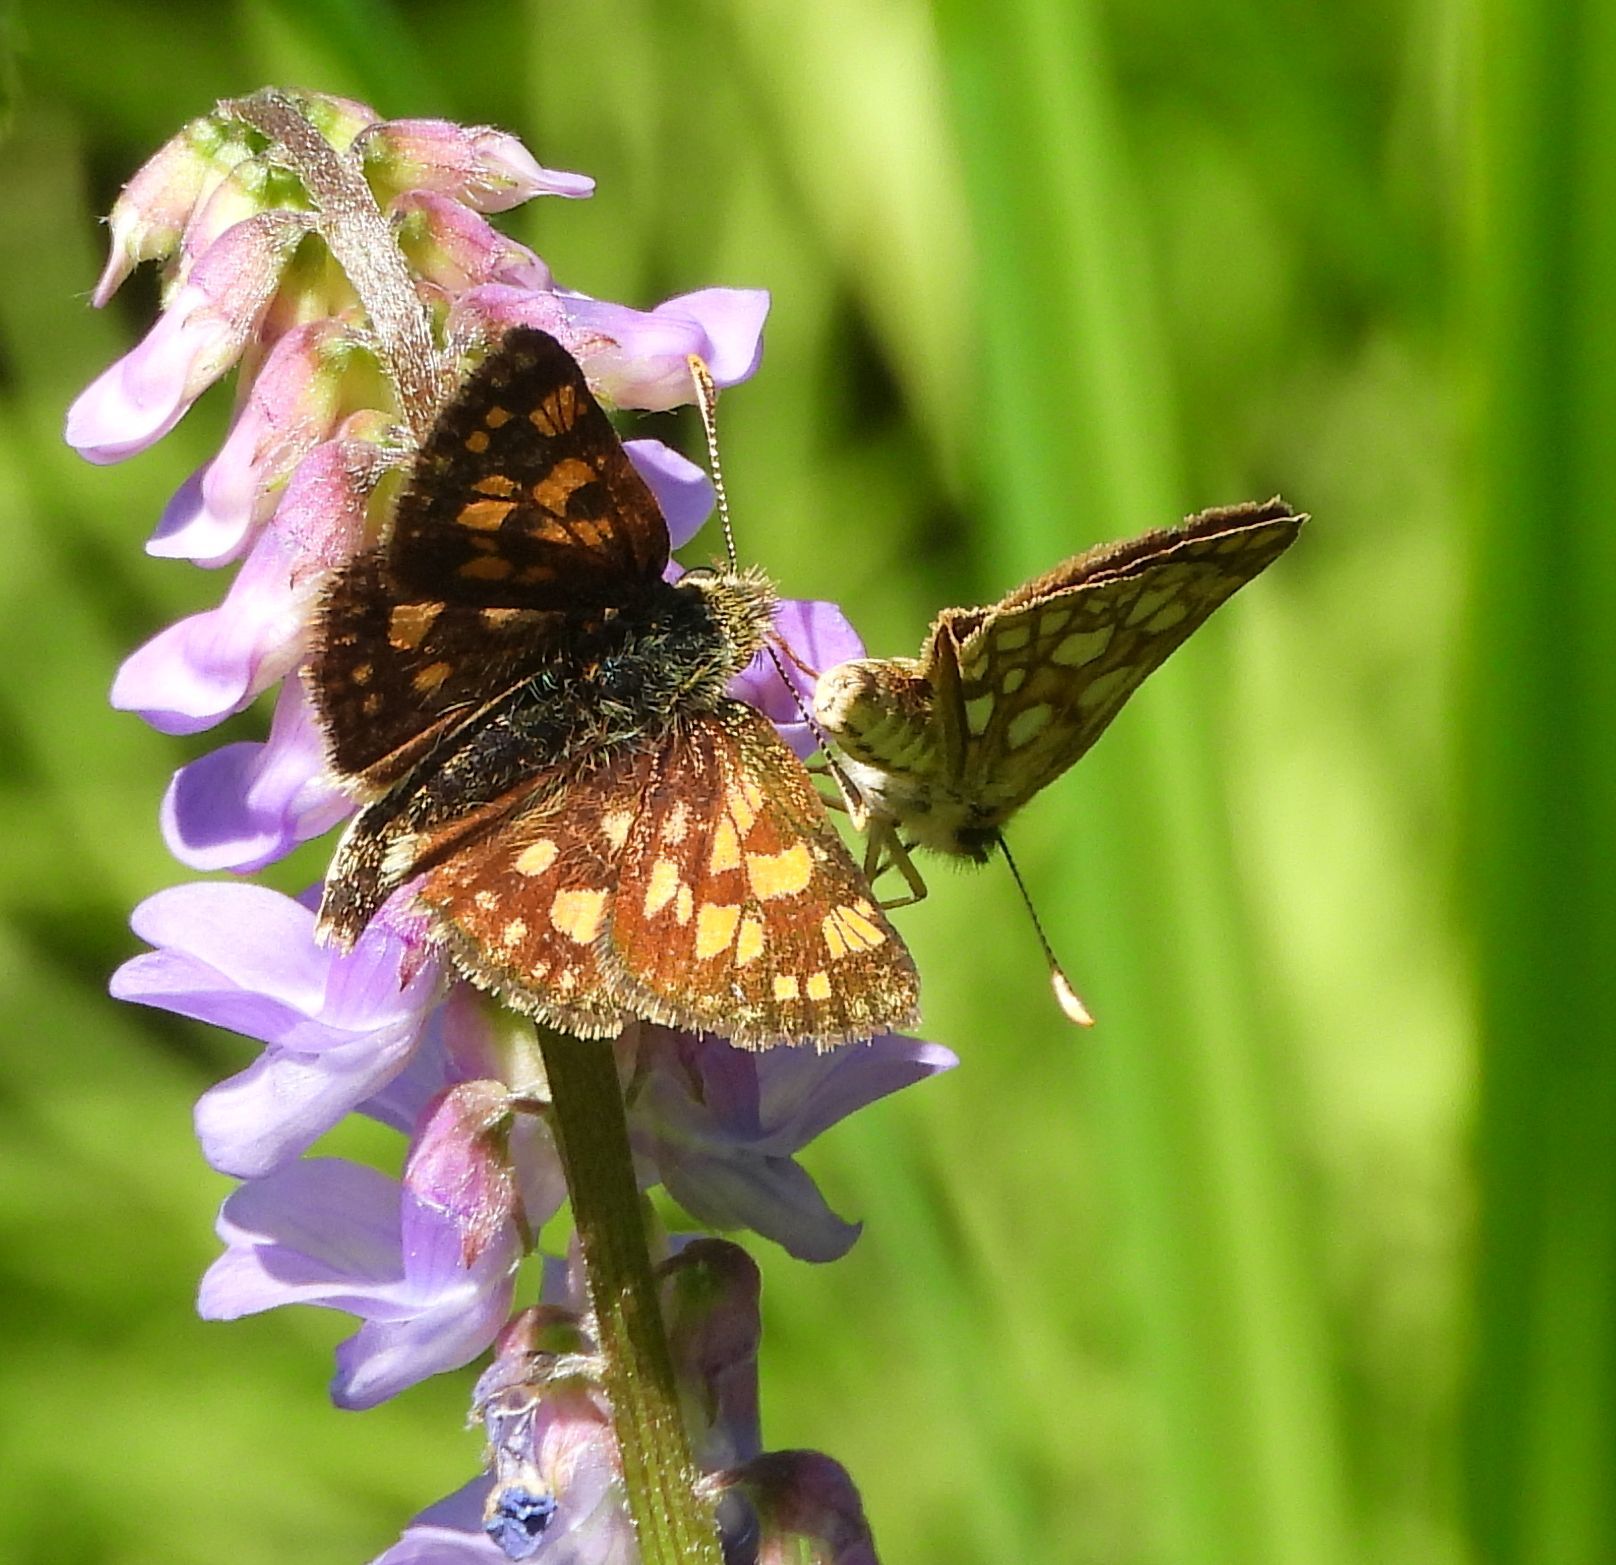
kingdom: Animalia
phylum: Arthropoda
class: Insecta
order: Lepidoptera
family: Hesperiidae
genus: Carterocephalus
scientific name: Carterocephalus mandan
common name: Arctic skipperling
